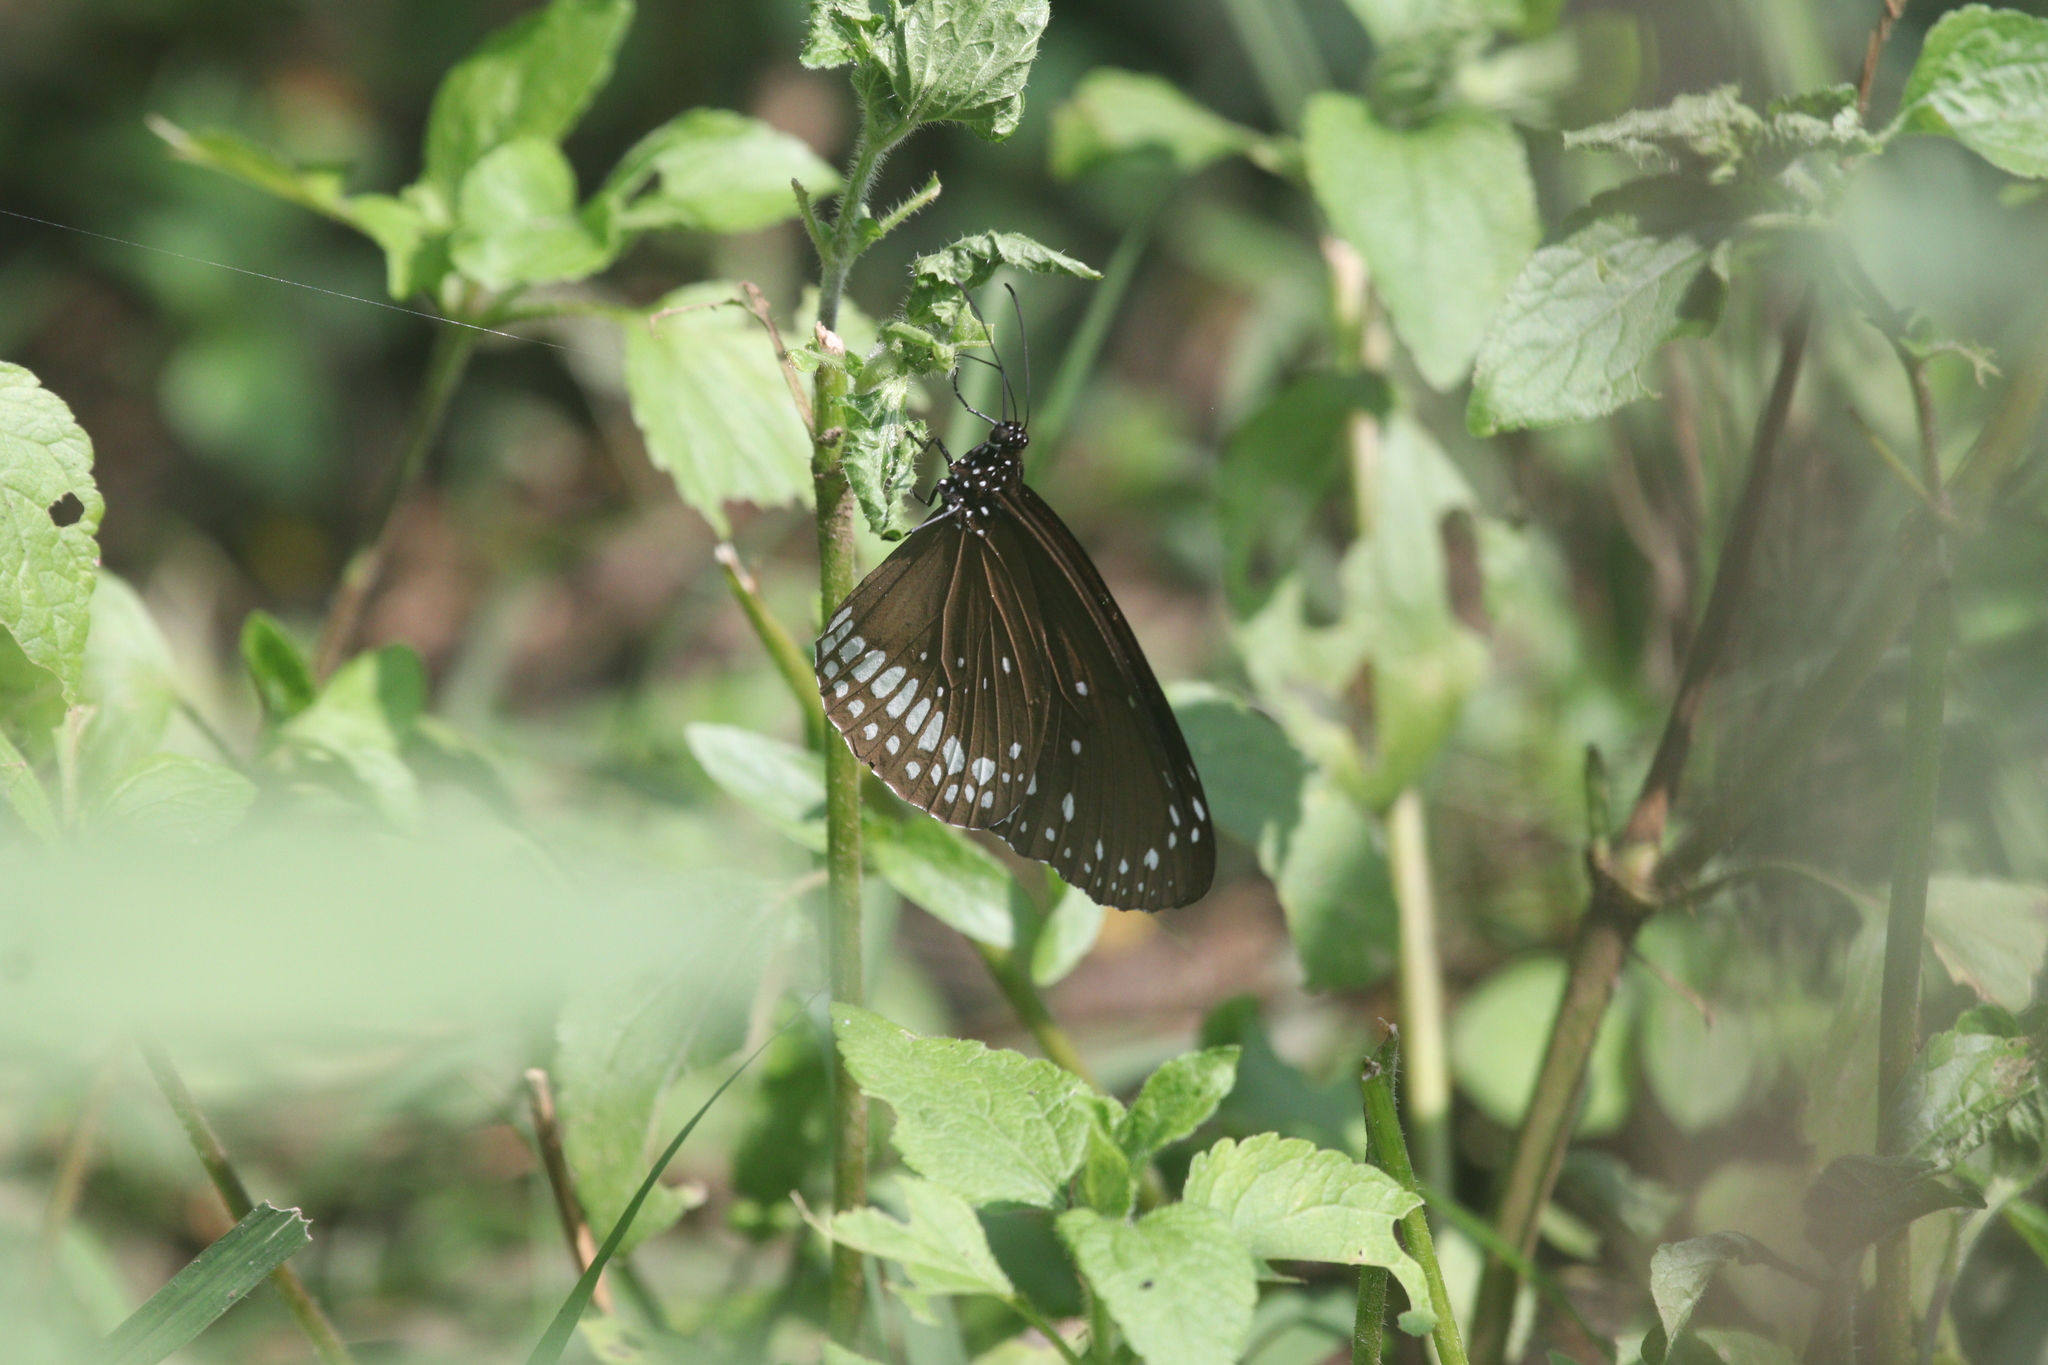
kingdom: Animalia
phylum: Arthropoda
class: Insecta
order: Lepidoptera
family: Nymphalidae
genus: Euploea
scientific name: Euploea core
